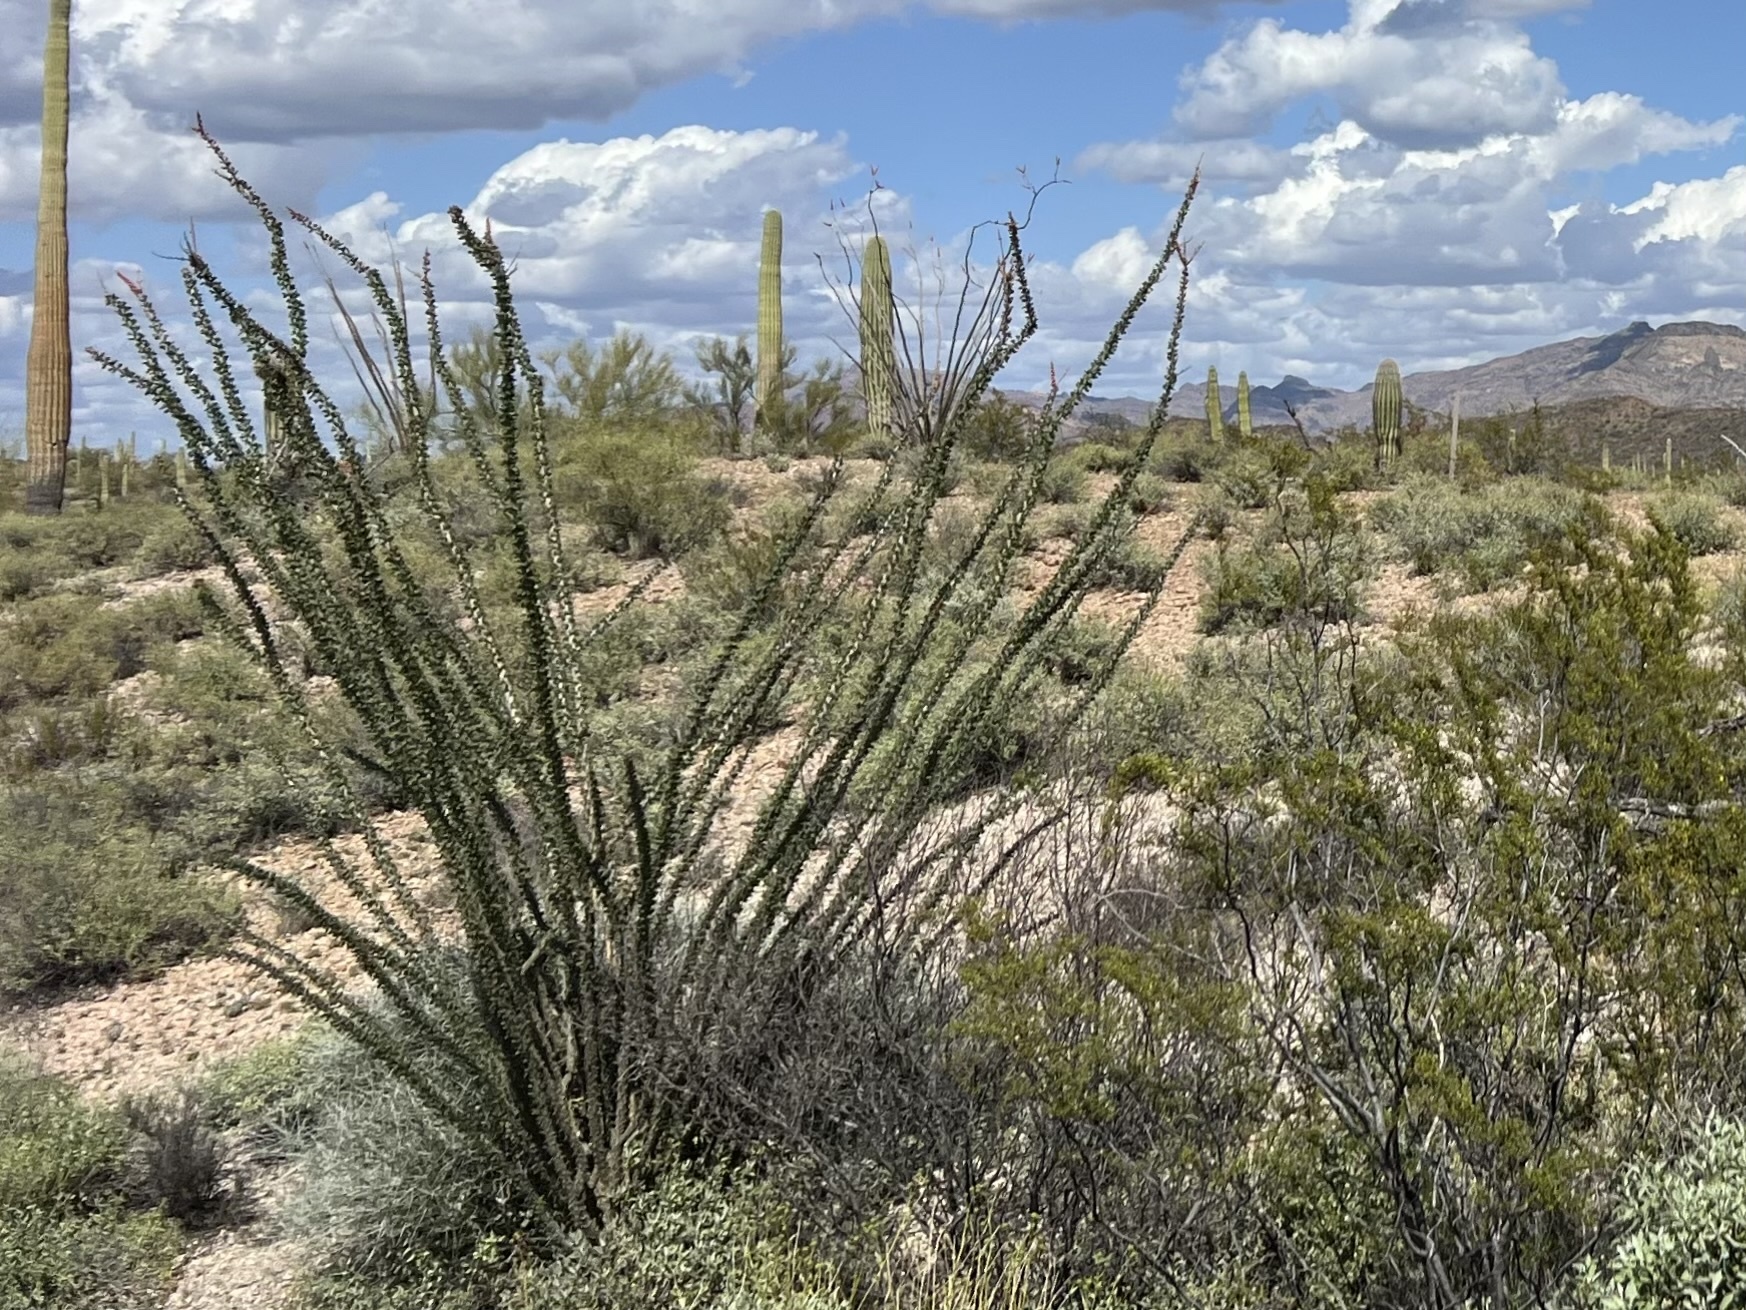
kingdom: Plantae
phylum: Tracheophyta
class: Magnoliopsida
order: Ericales
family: Fouquieriaceae
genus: Fouquieria
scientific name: Fouquieria splendens
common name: Vine-cactus
